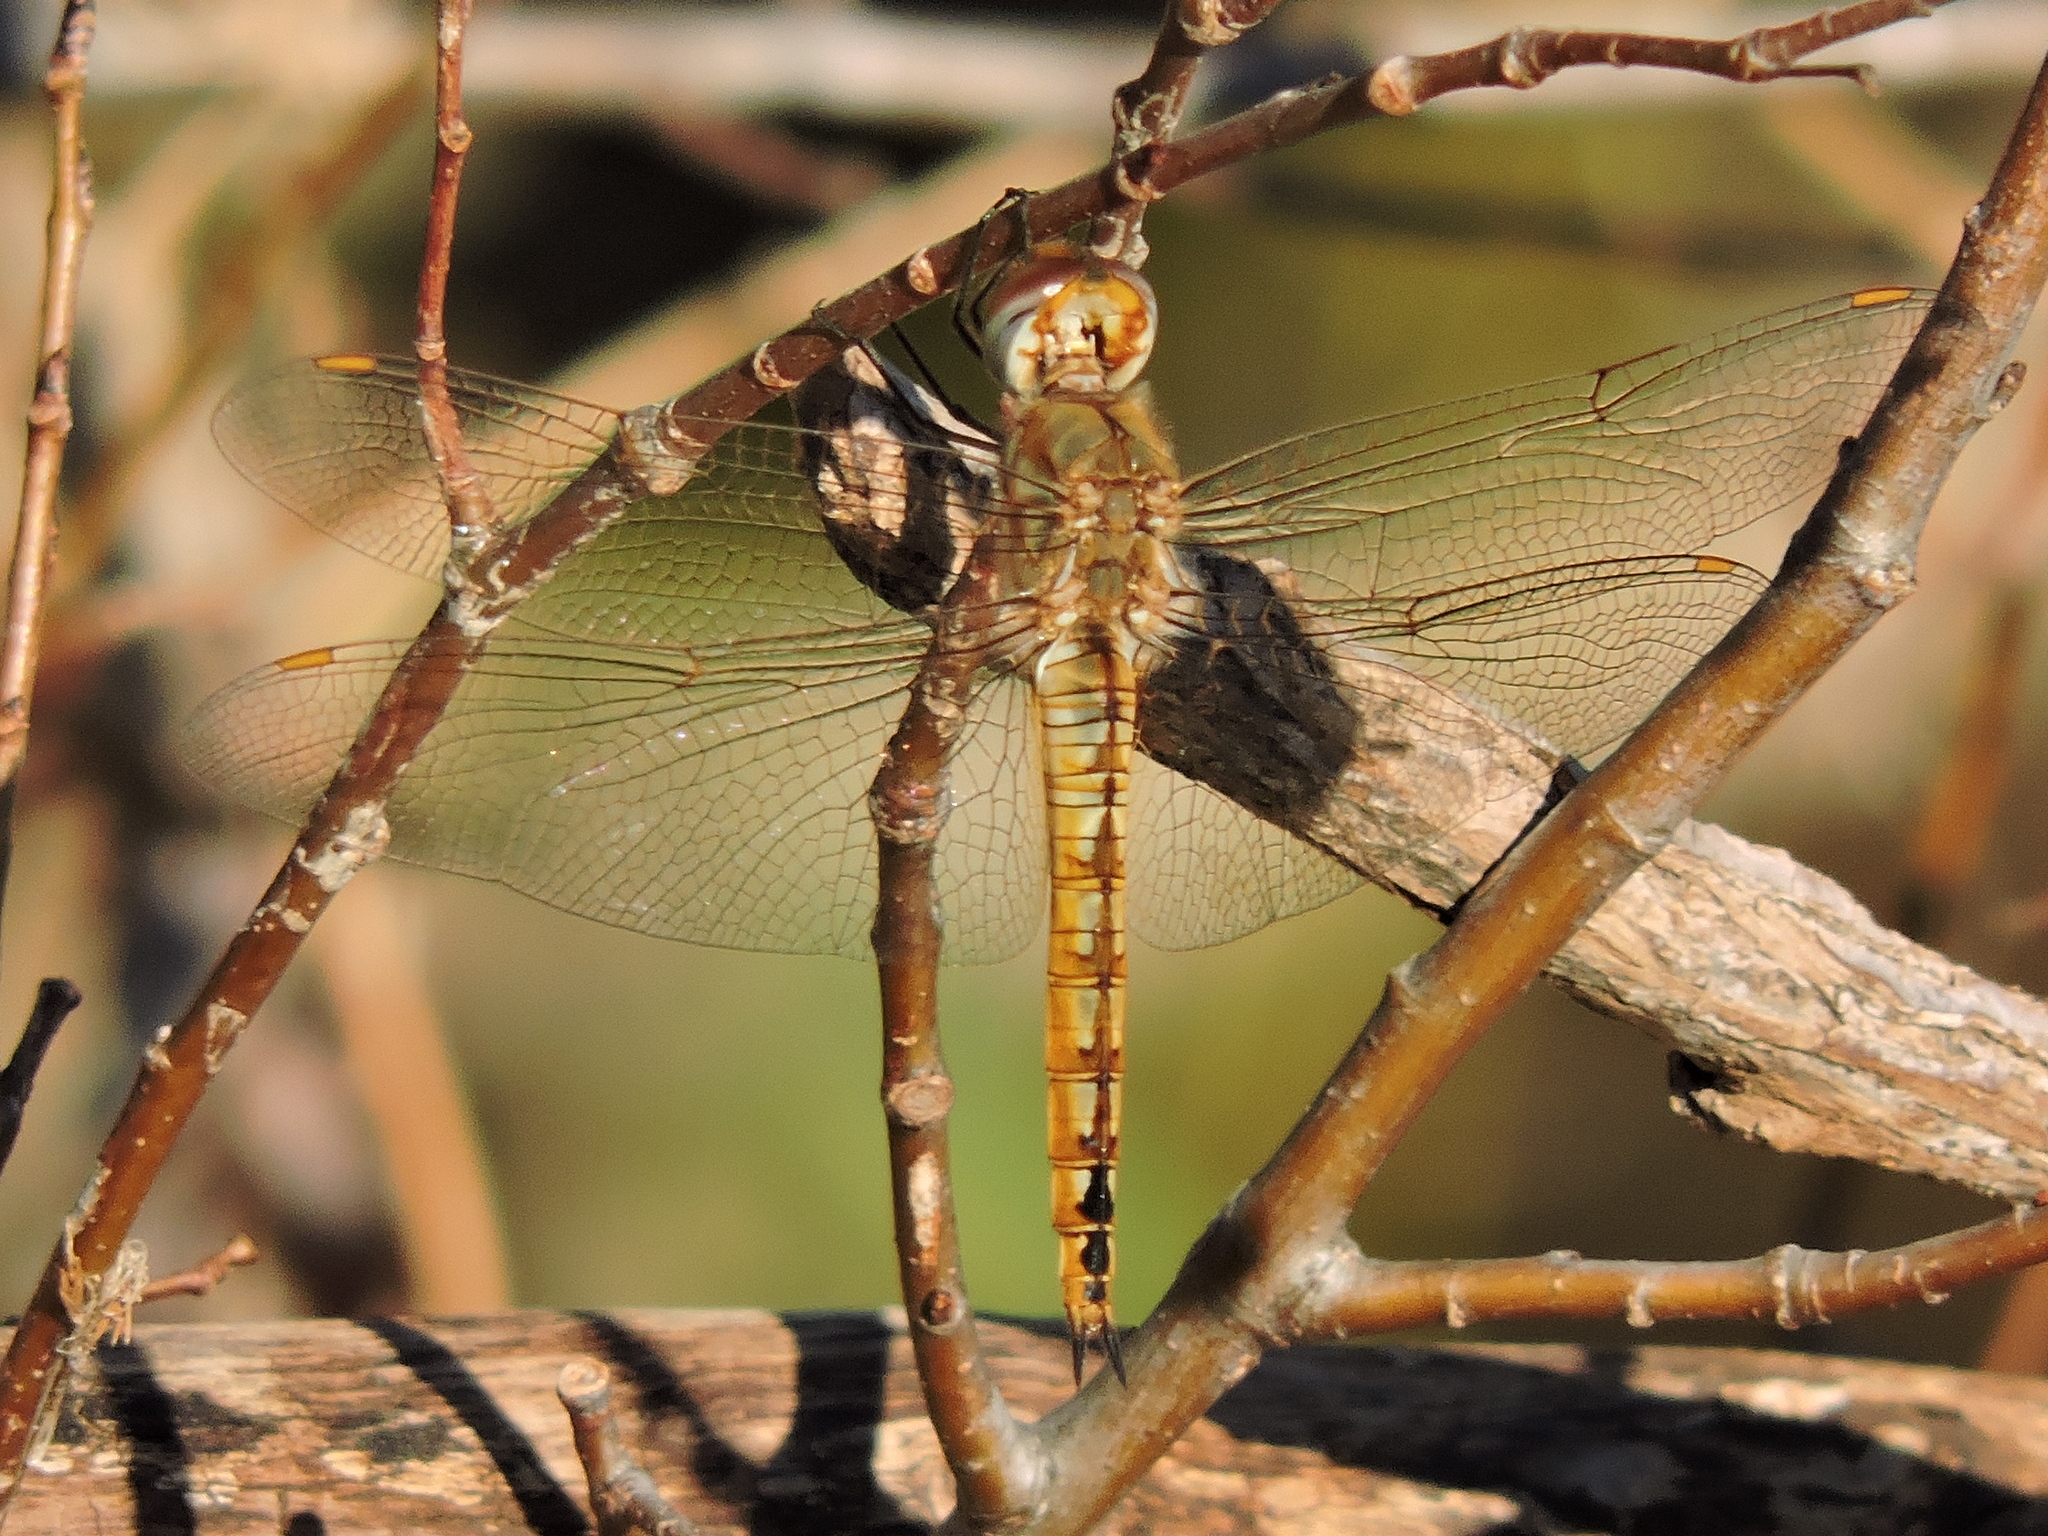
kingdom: Animalia
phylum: Arthropoda
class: Insecta
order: Odonata
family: Libellulidae
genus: Pantala
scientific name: Pantala flavescens
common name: Wandering glider
